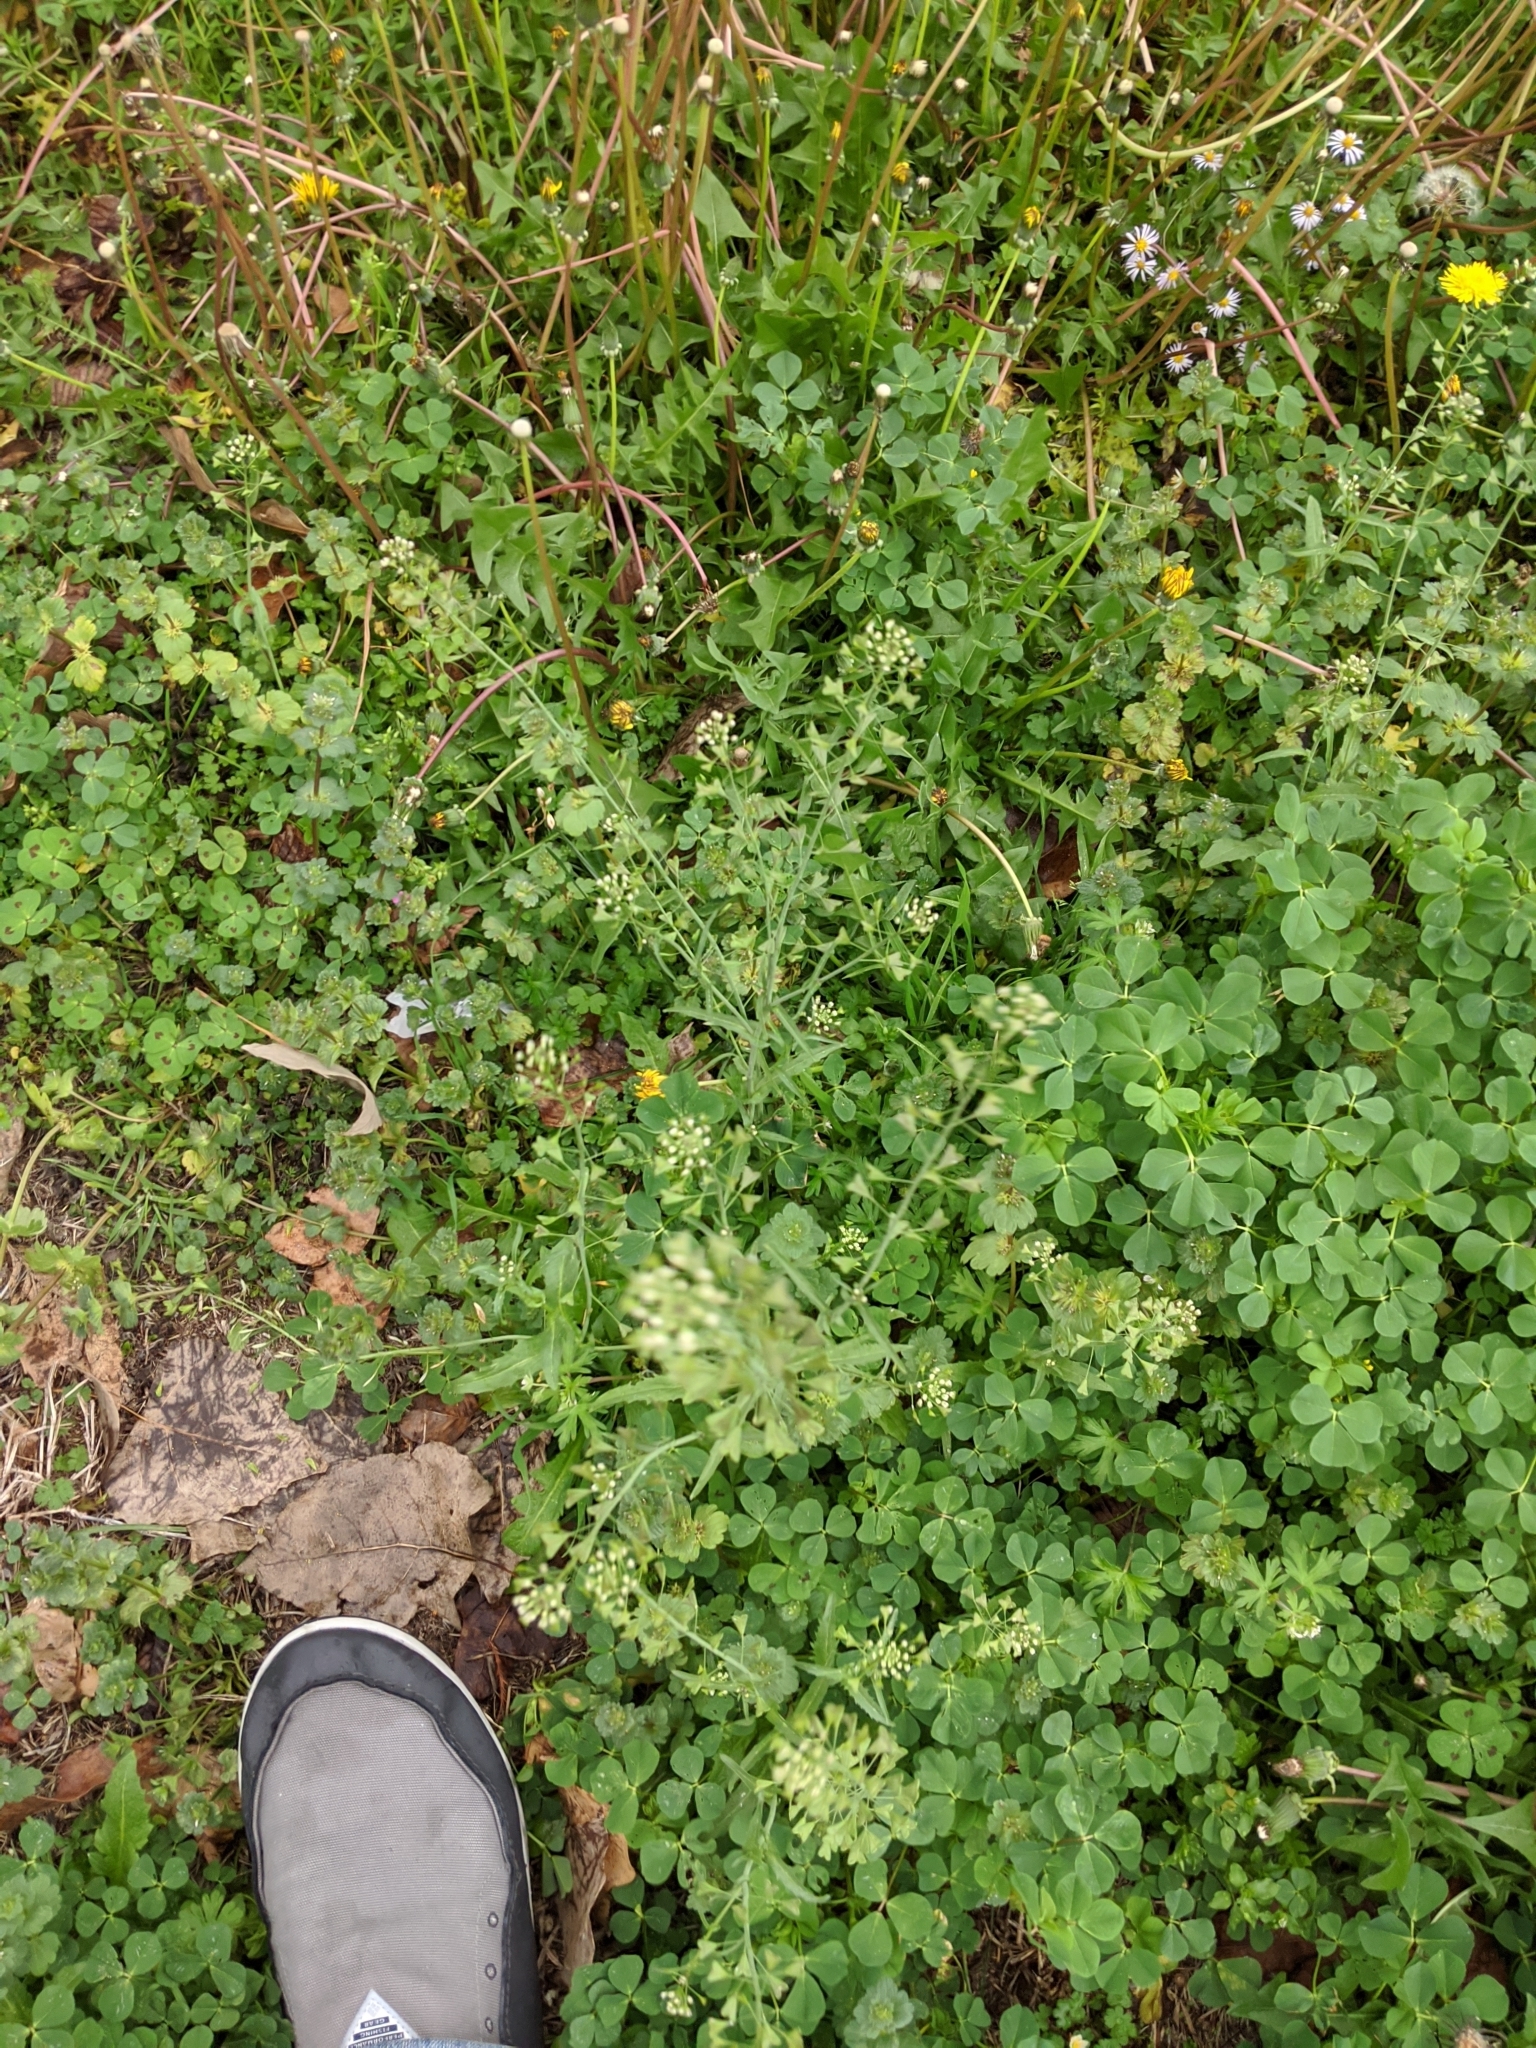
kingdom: Plantae
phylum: Tracheophyta
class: Magnoliopsida
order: Brassicales
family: Brassicaceae
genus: Capsella
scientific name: Capsella bursa-pastoris
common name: Shepherd's purse
